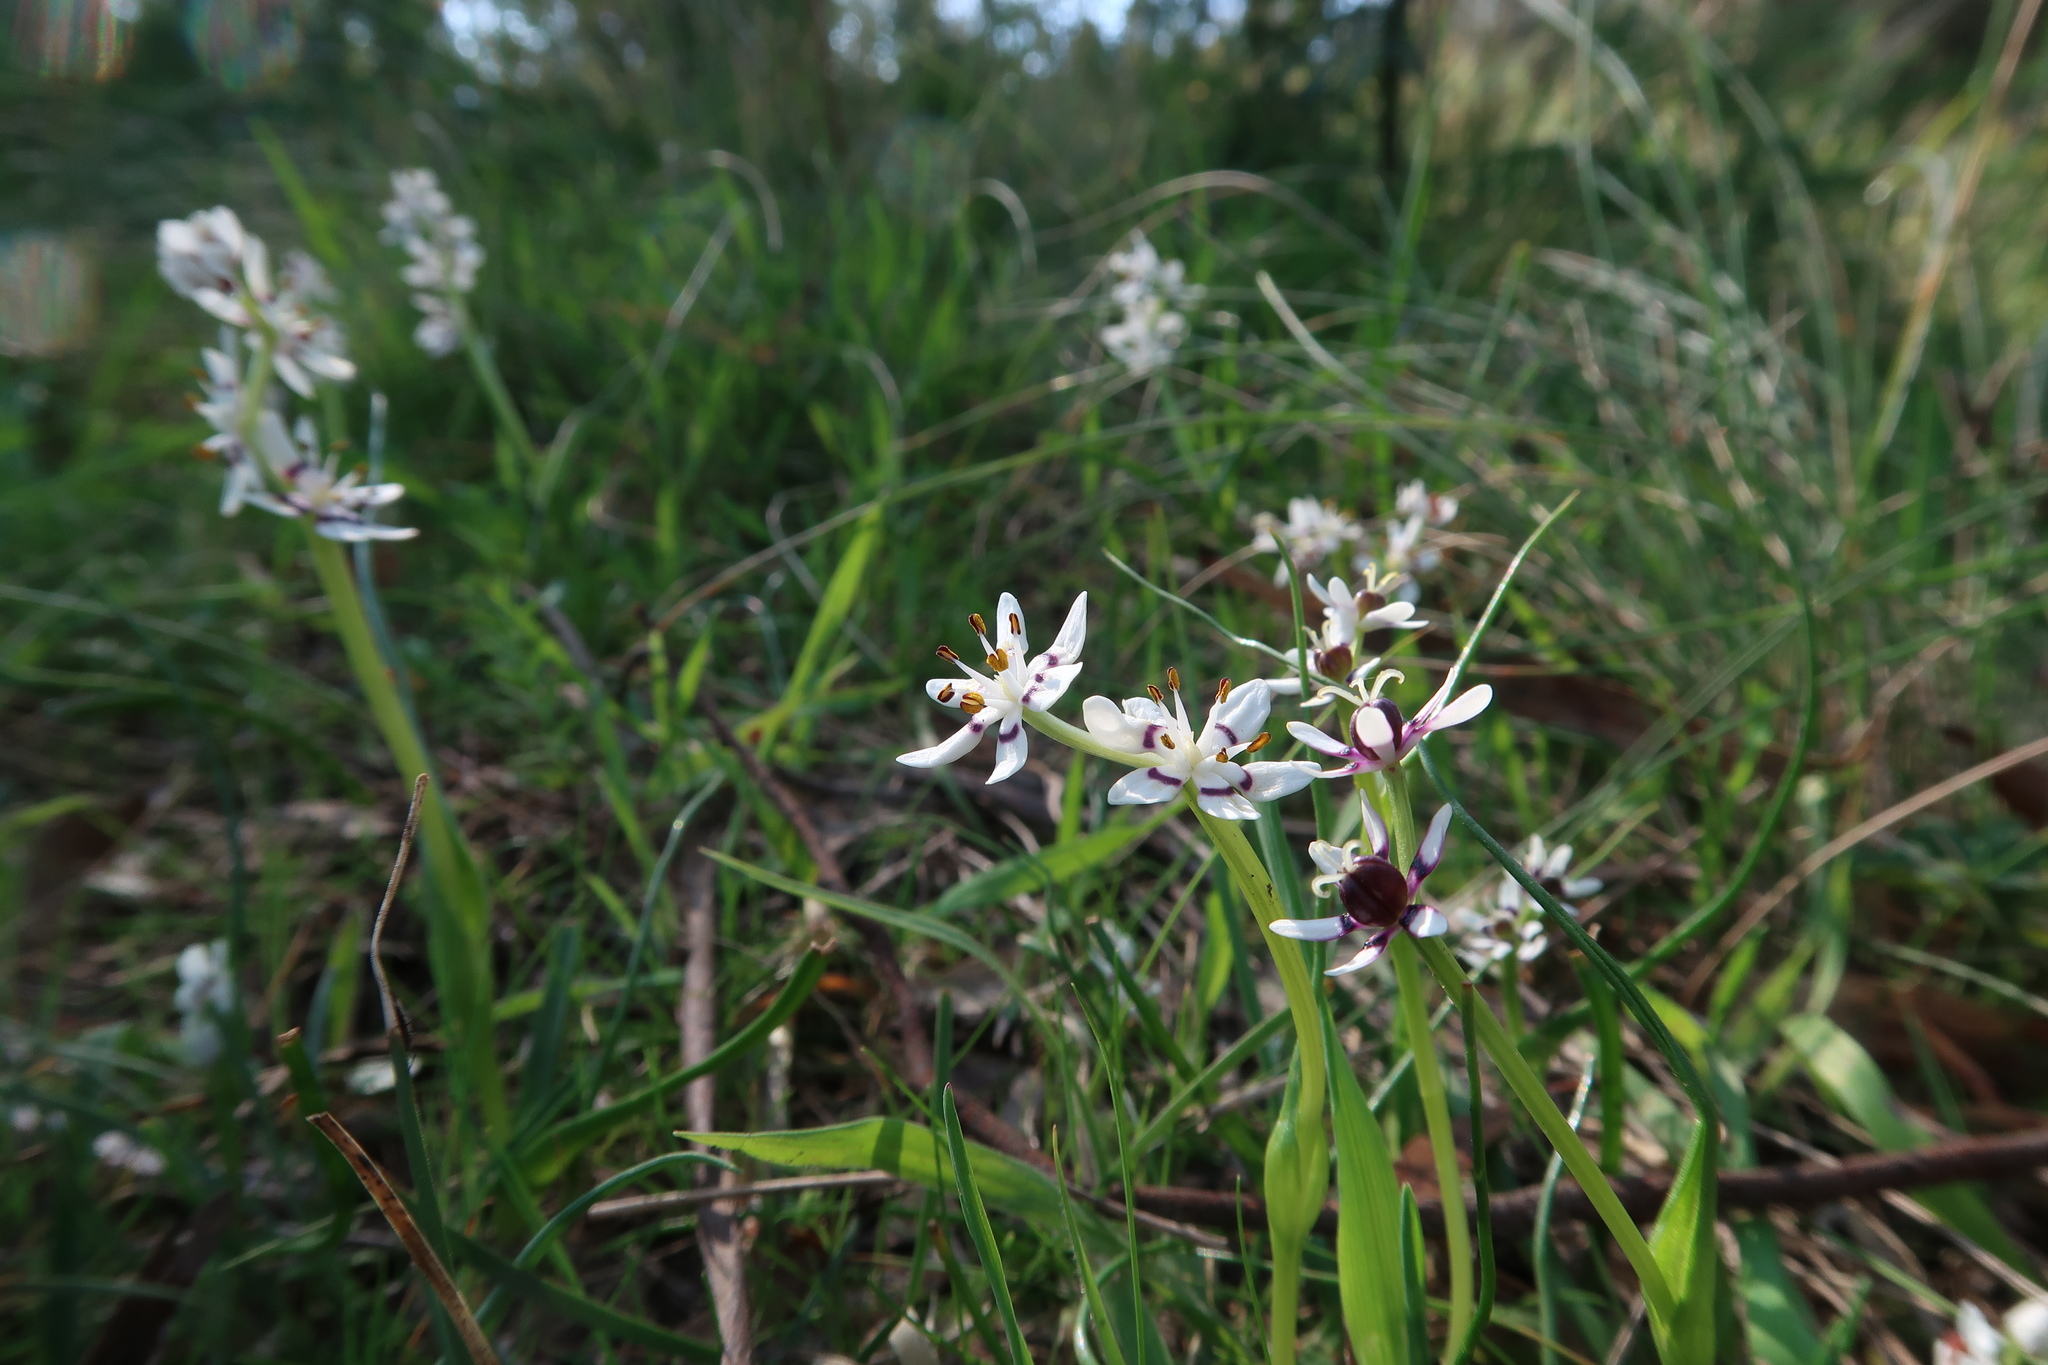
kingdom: Plantae
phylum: Tracheophyta
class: Liliopsida
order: Liliales
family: Colchicaceae
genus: Wurmbea
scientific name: Wurmbea dioica
